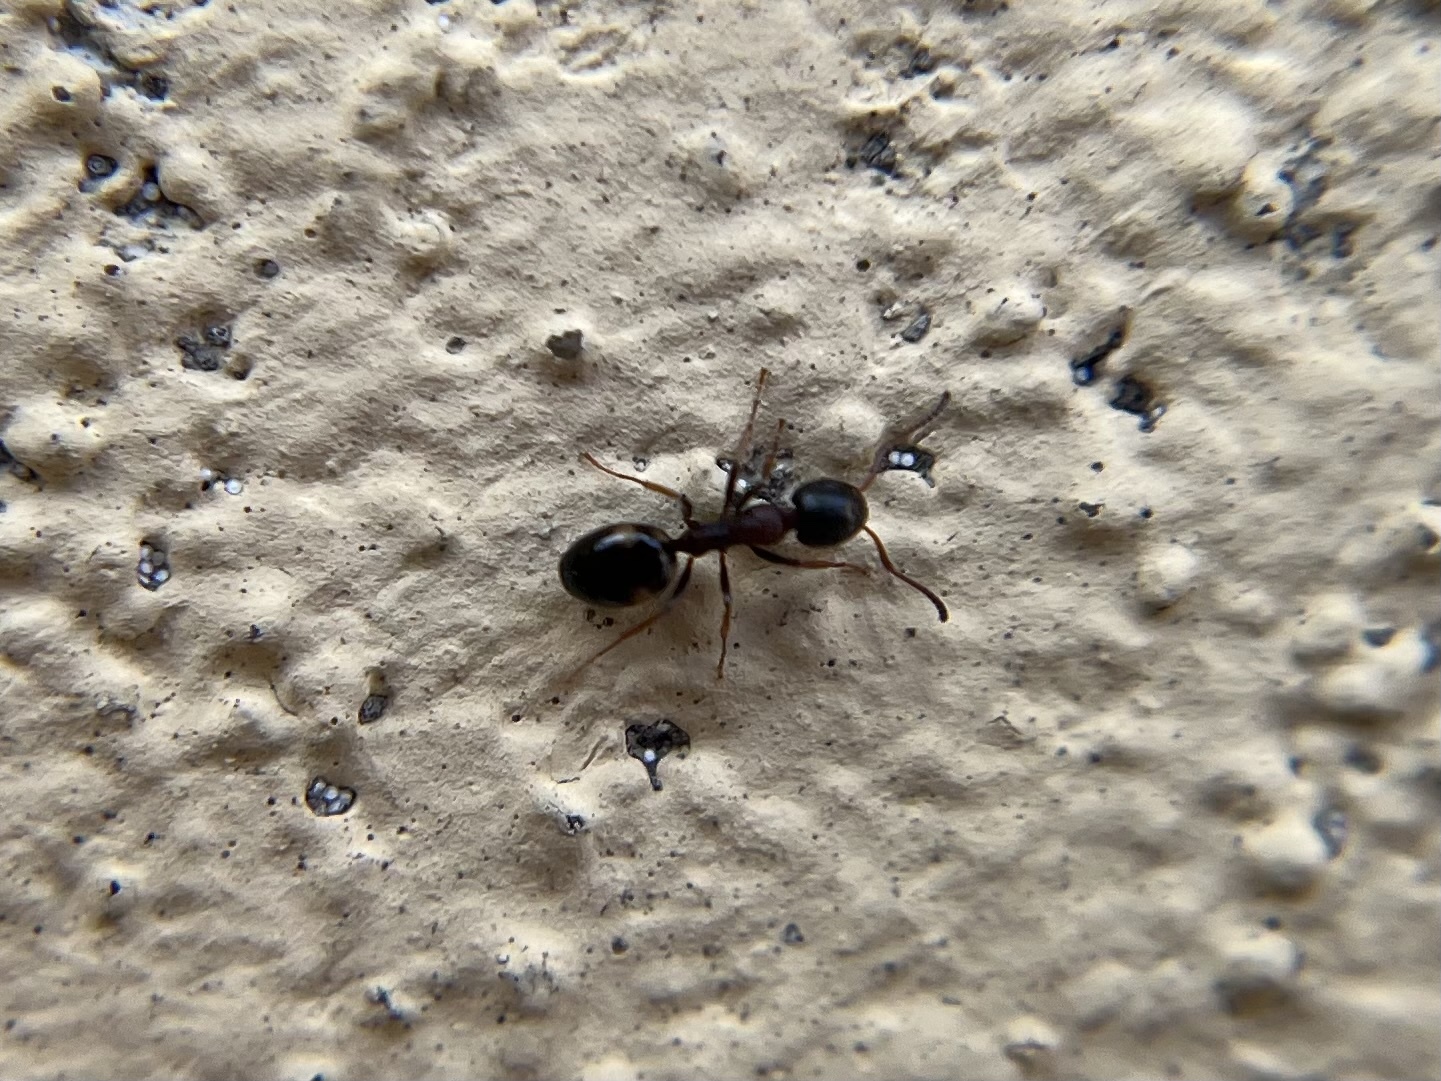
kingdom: Animalia
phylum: Arthropoda
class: Insecta
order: Hymenoptera
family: Formicidae
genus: Dolichoderus
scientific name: Dolichoderus quadripunctatus
